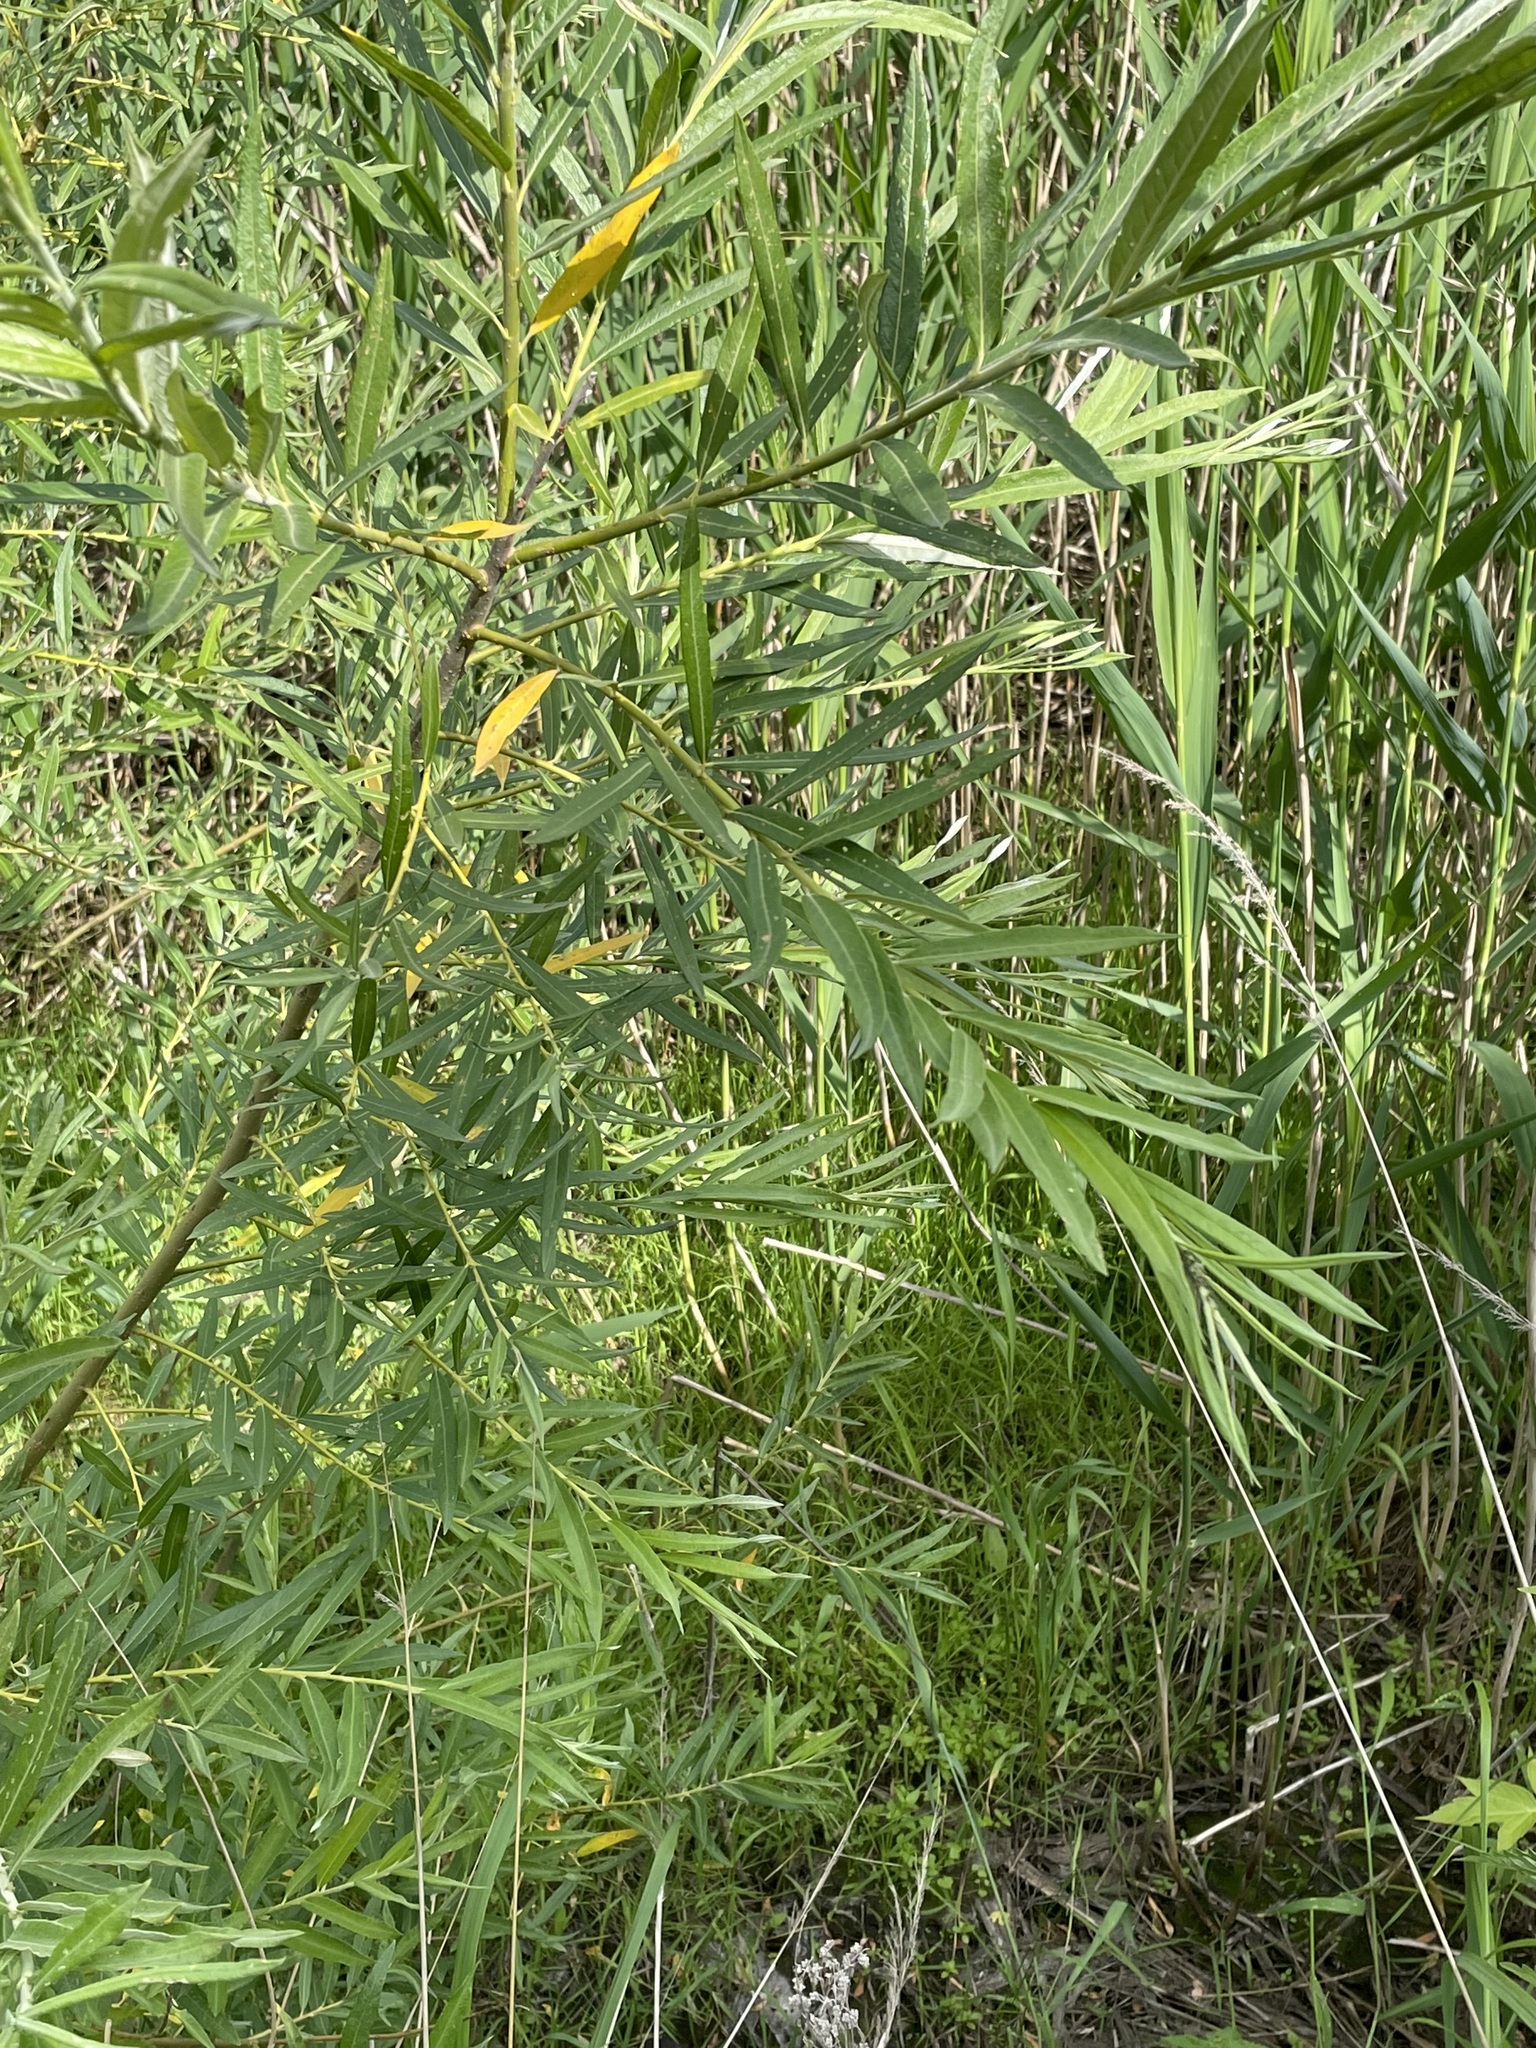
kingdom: Plantae
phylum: Tracheophyta
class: Magnoliopsida
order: Malpighiales
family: Salicaceae
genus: Salix
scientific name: Salix viminalis
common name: Osier
